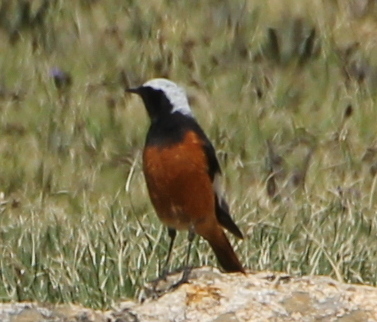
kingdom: Animalia
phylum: Chordata
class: Aves
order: Passeriformes
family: Muscicapidae
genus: Phoenicurus
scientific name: Phoenicurus erythrogastrus
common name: Güldenstädt's redstart
